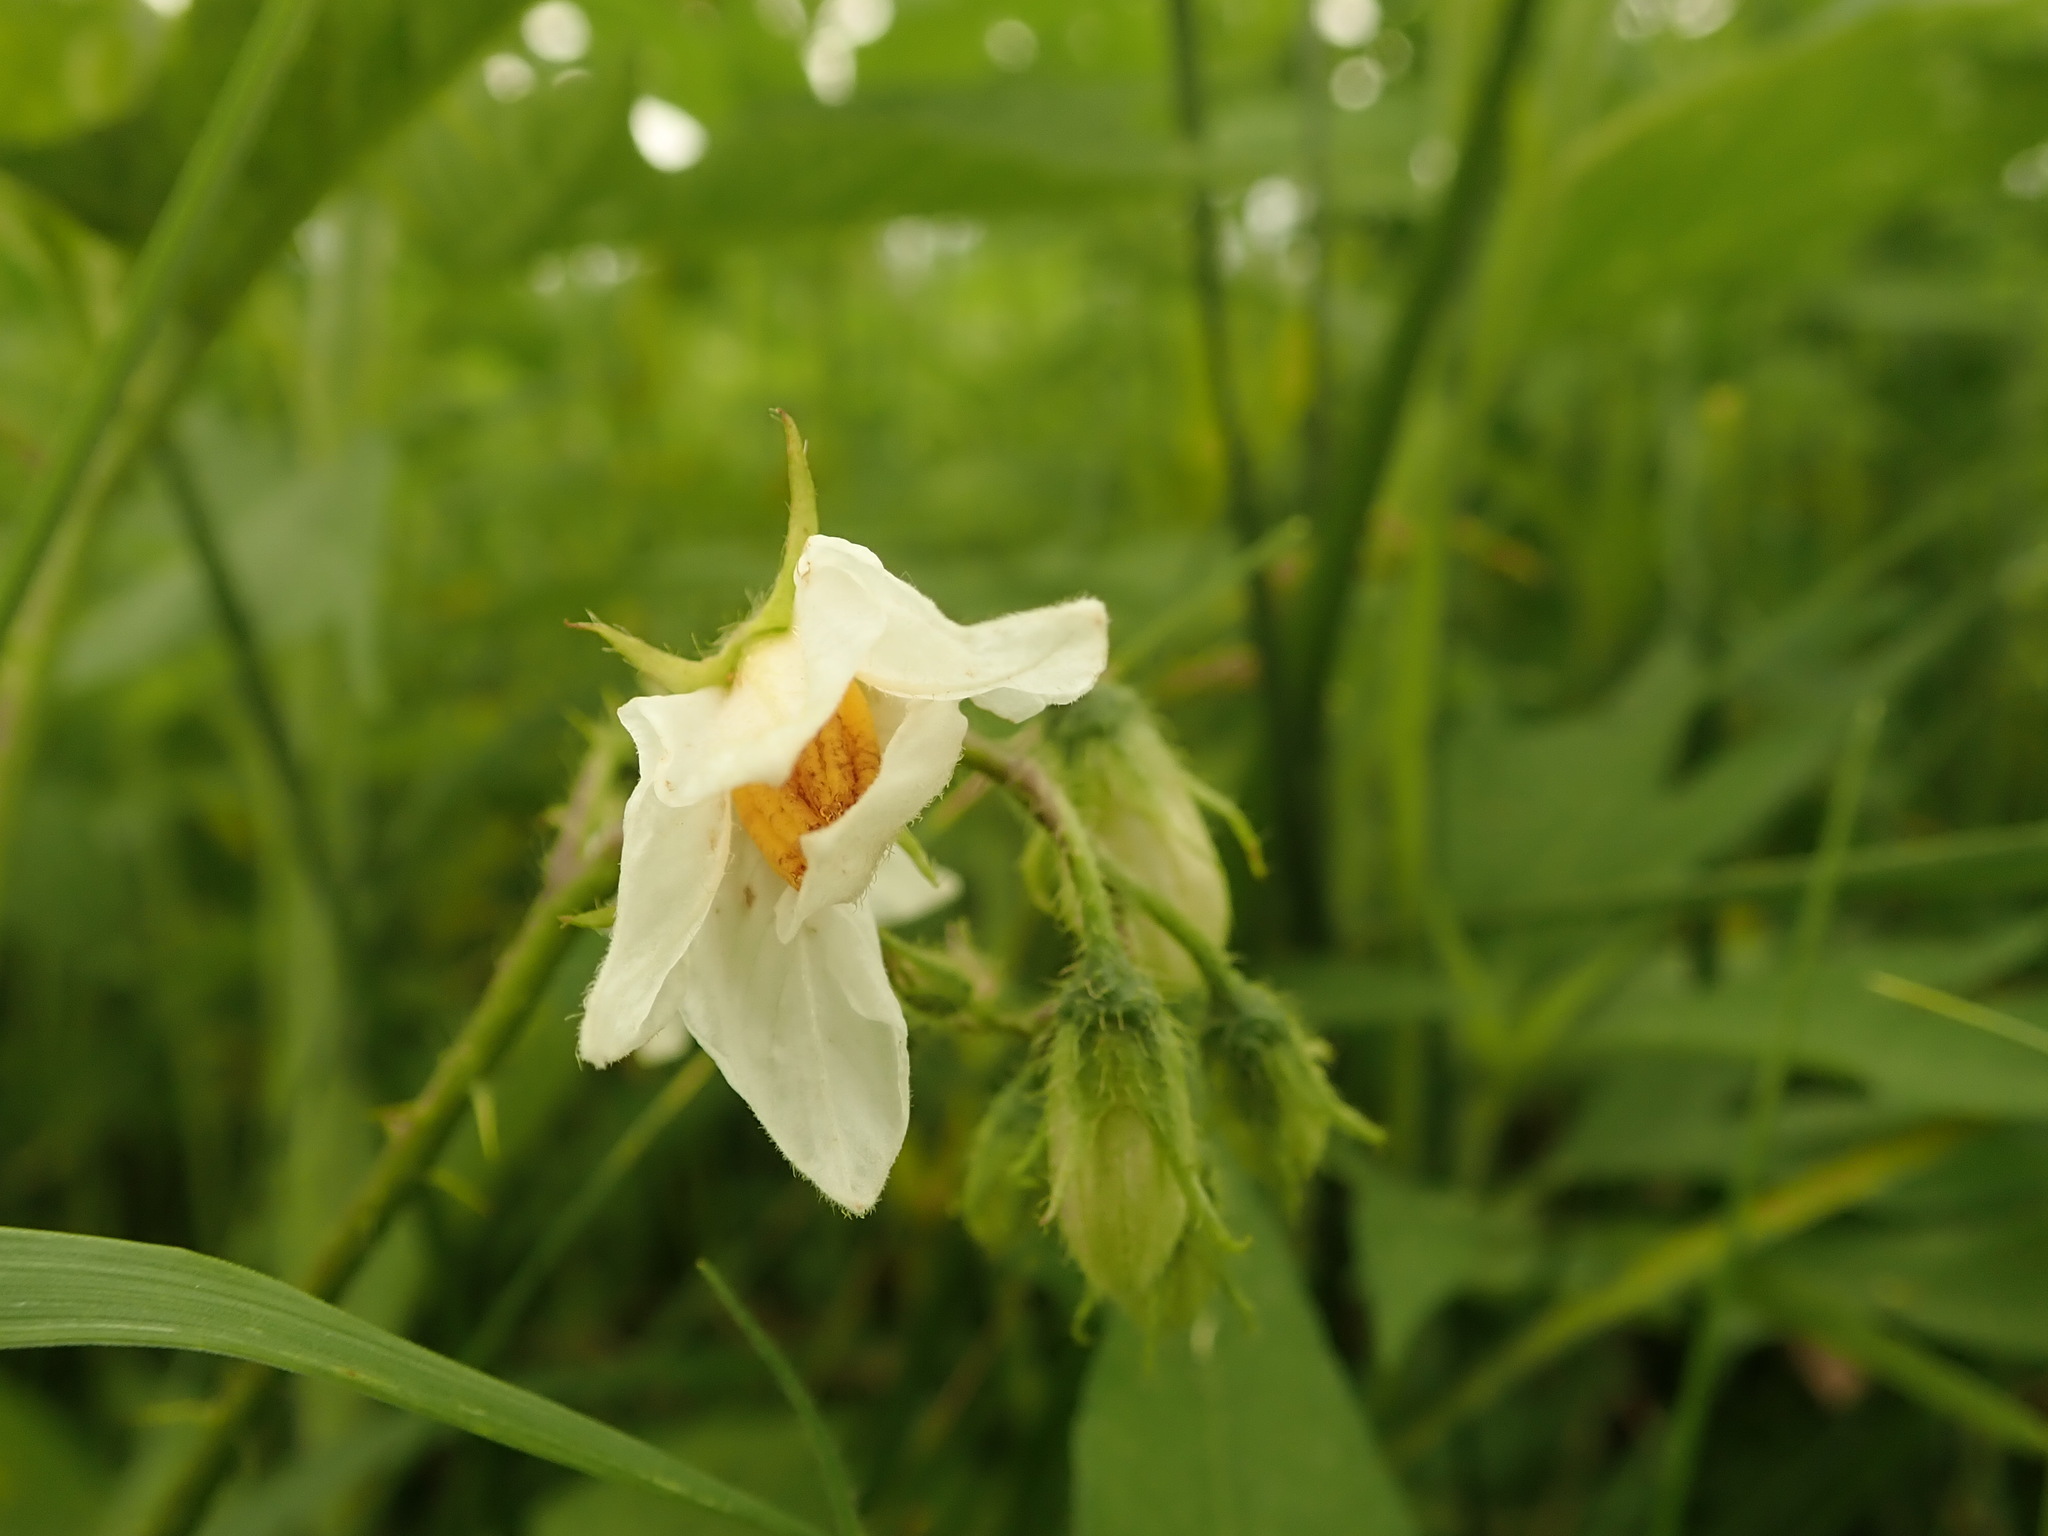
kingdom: Plantae
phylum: Tracheophyta
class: Magnoliopsida
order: Solanales
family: Solanaceae
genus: Solanum
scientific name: Solanum carolinense
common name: Horse-nettle
